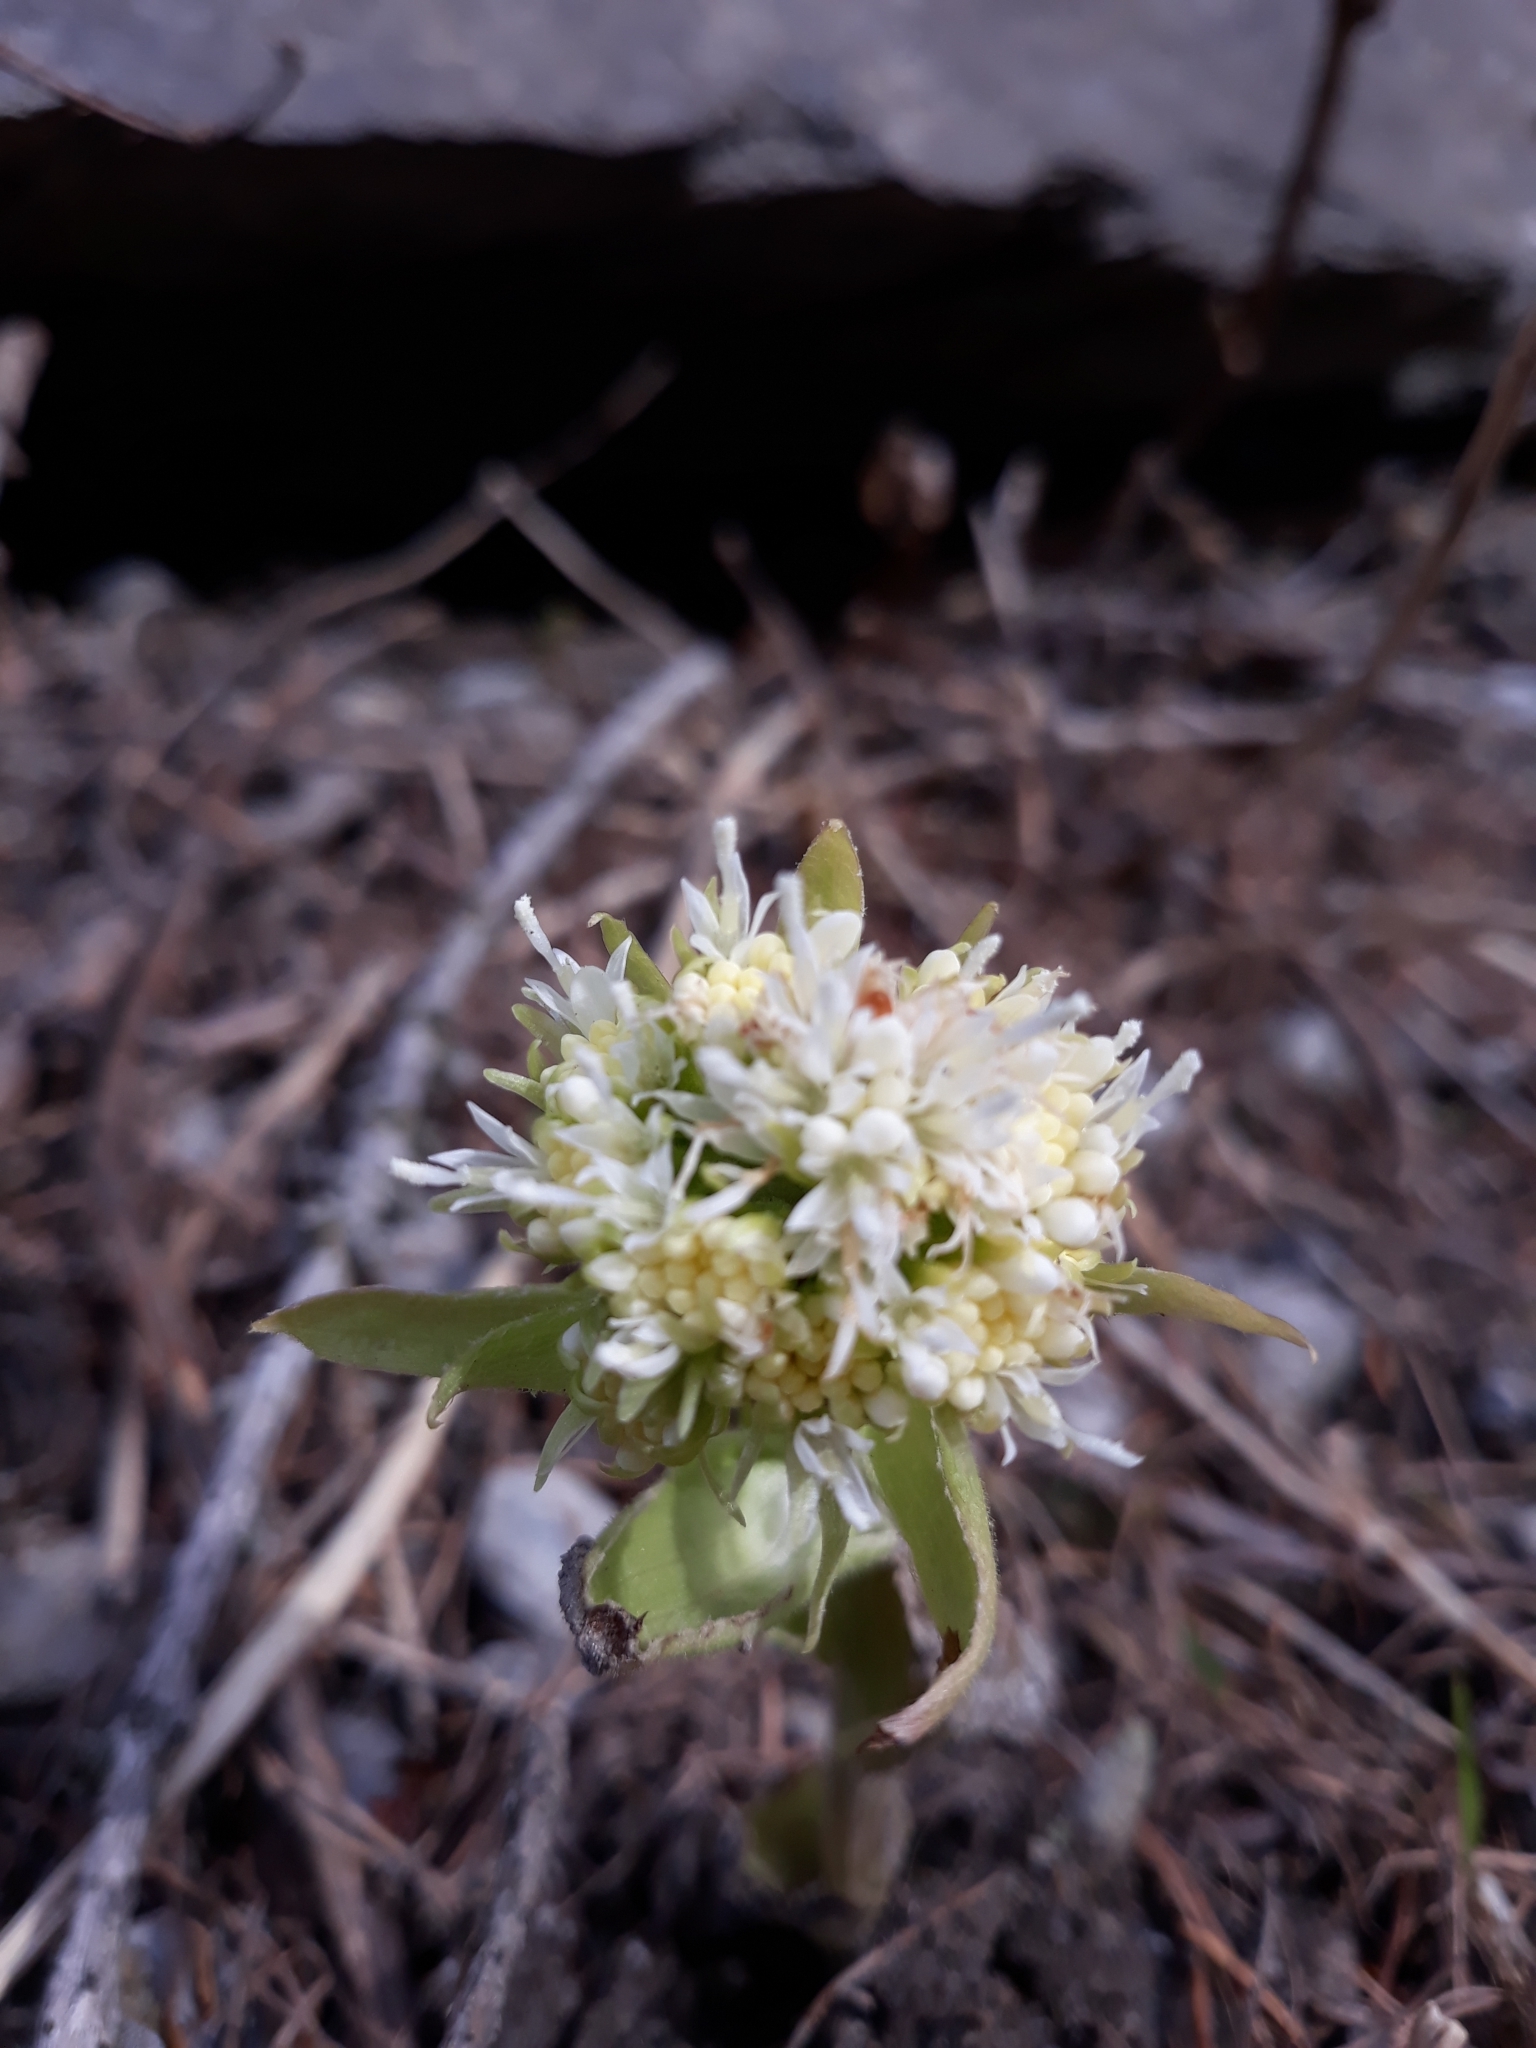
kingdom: Plantae
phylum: Tracheophyta
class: Magnoliopsida
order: Asterales
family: Asteraceae
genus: Petasites
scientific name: Petasites albus
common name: White butterbur
